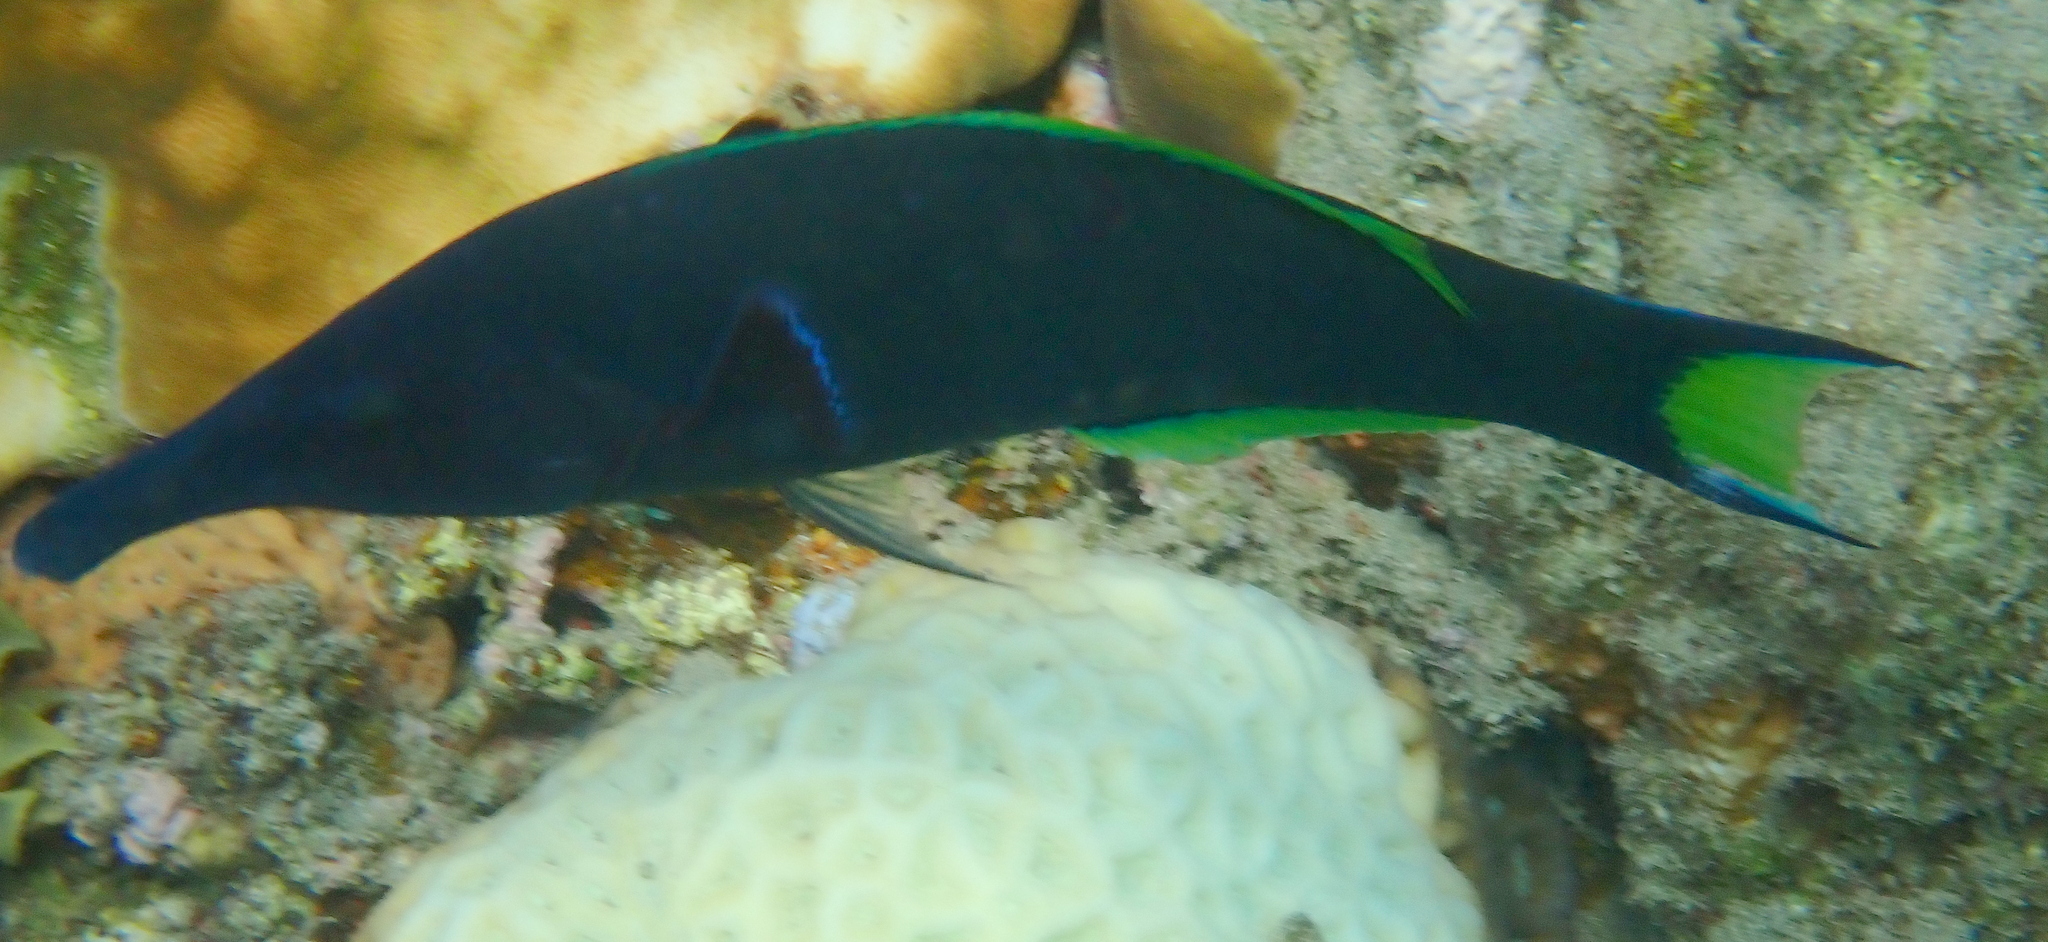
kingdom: Animalia
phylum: Chordata
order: Perciformes
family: Labridae
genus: Gomphosus
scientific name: Gomphosus klunzingeri
